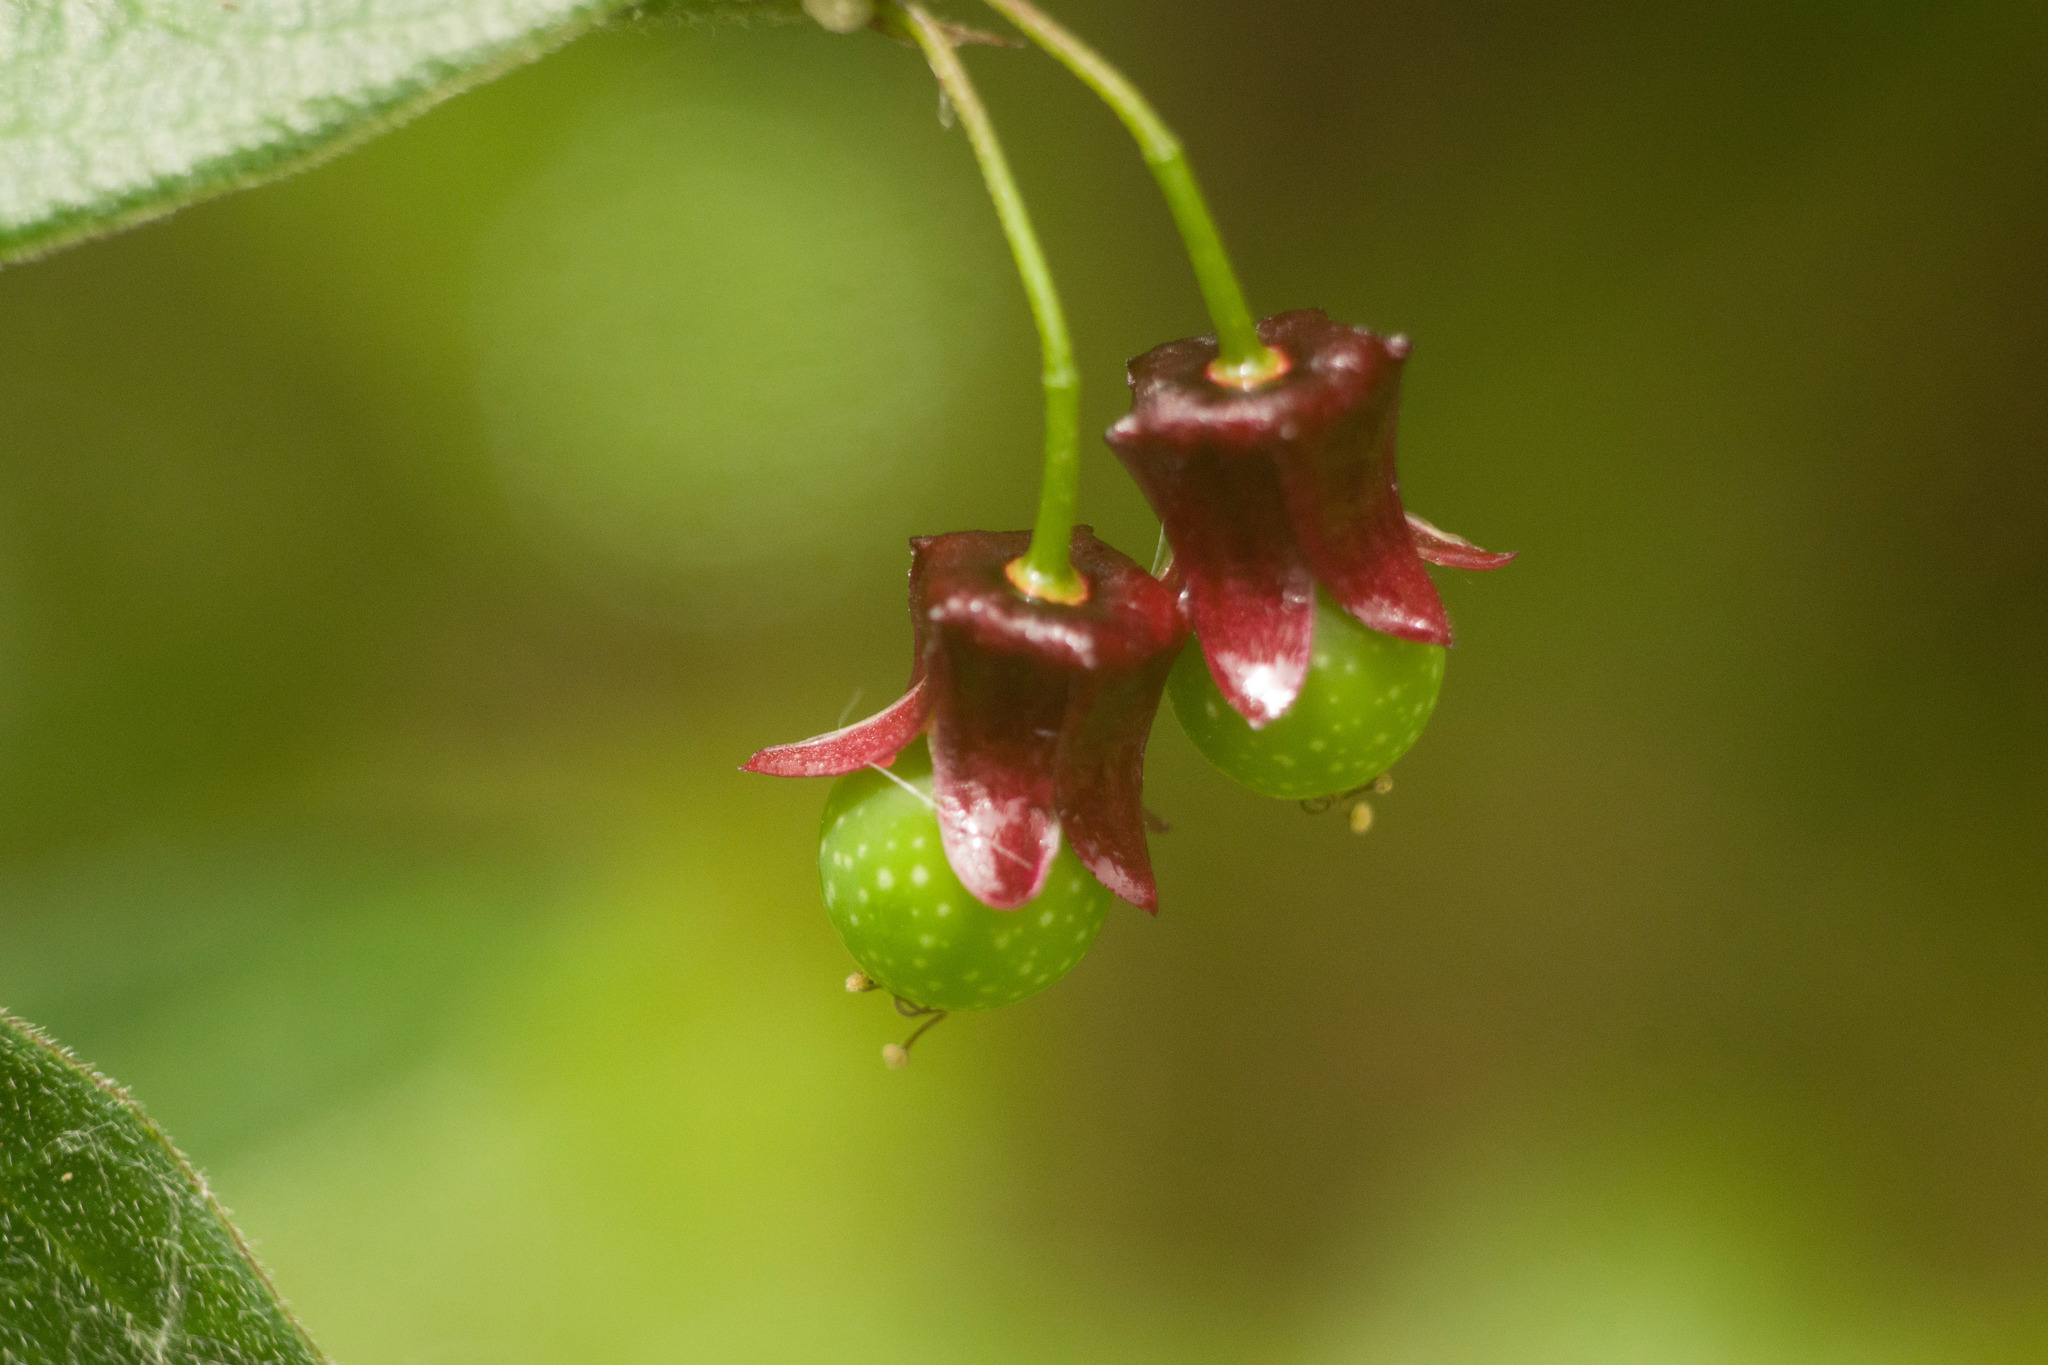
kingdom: Plantae
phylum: Tracheophyta
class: Magnoliopsida
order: Malpighiales
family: Passifloraceae
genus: Passiflora
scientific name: Passiflora suberosa
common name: Wild passionfruit
